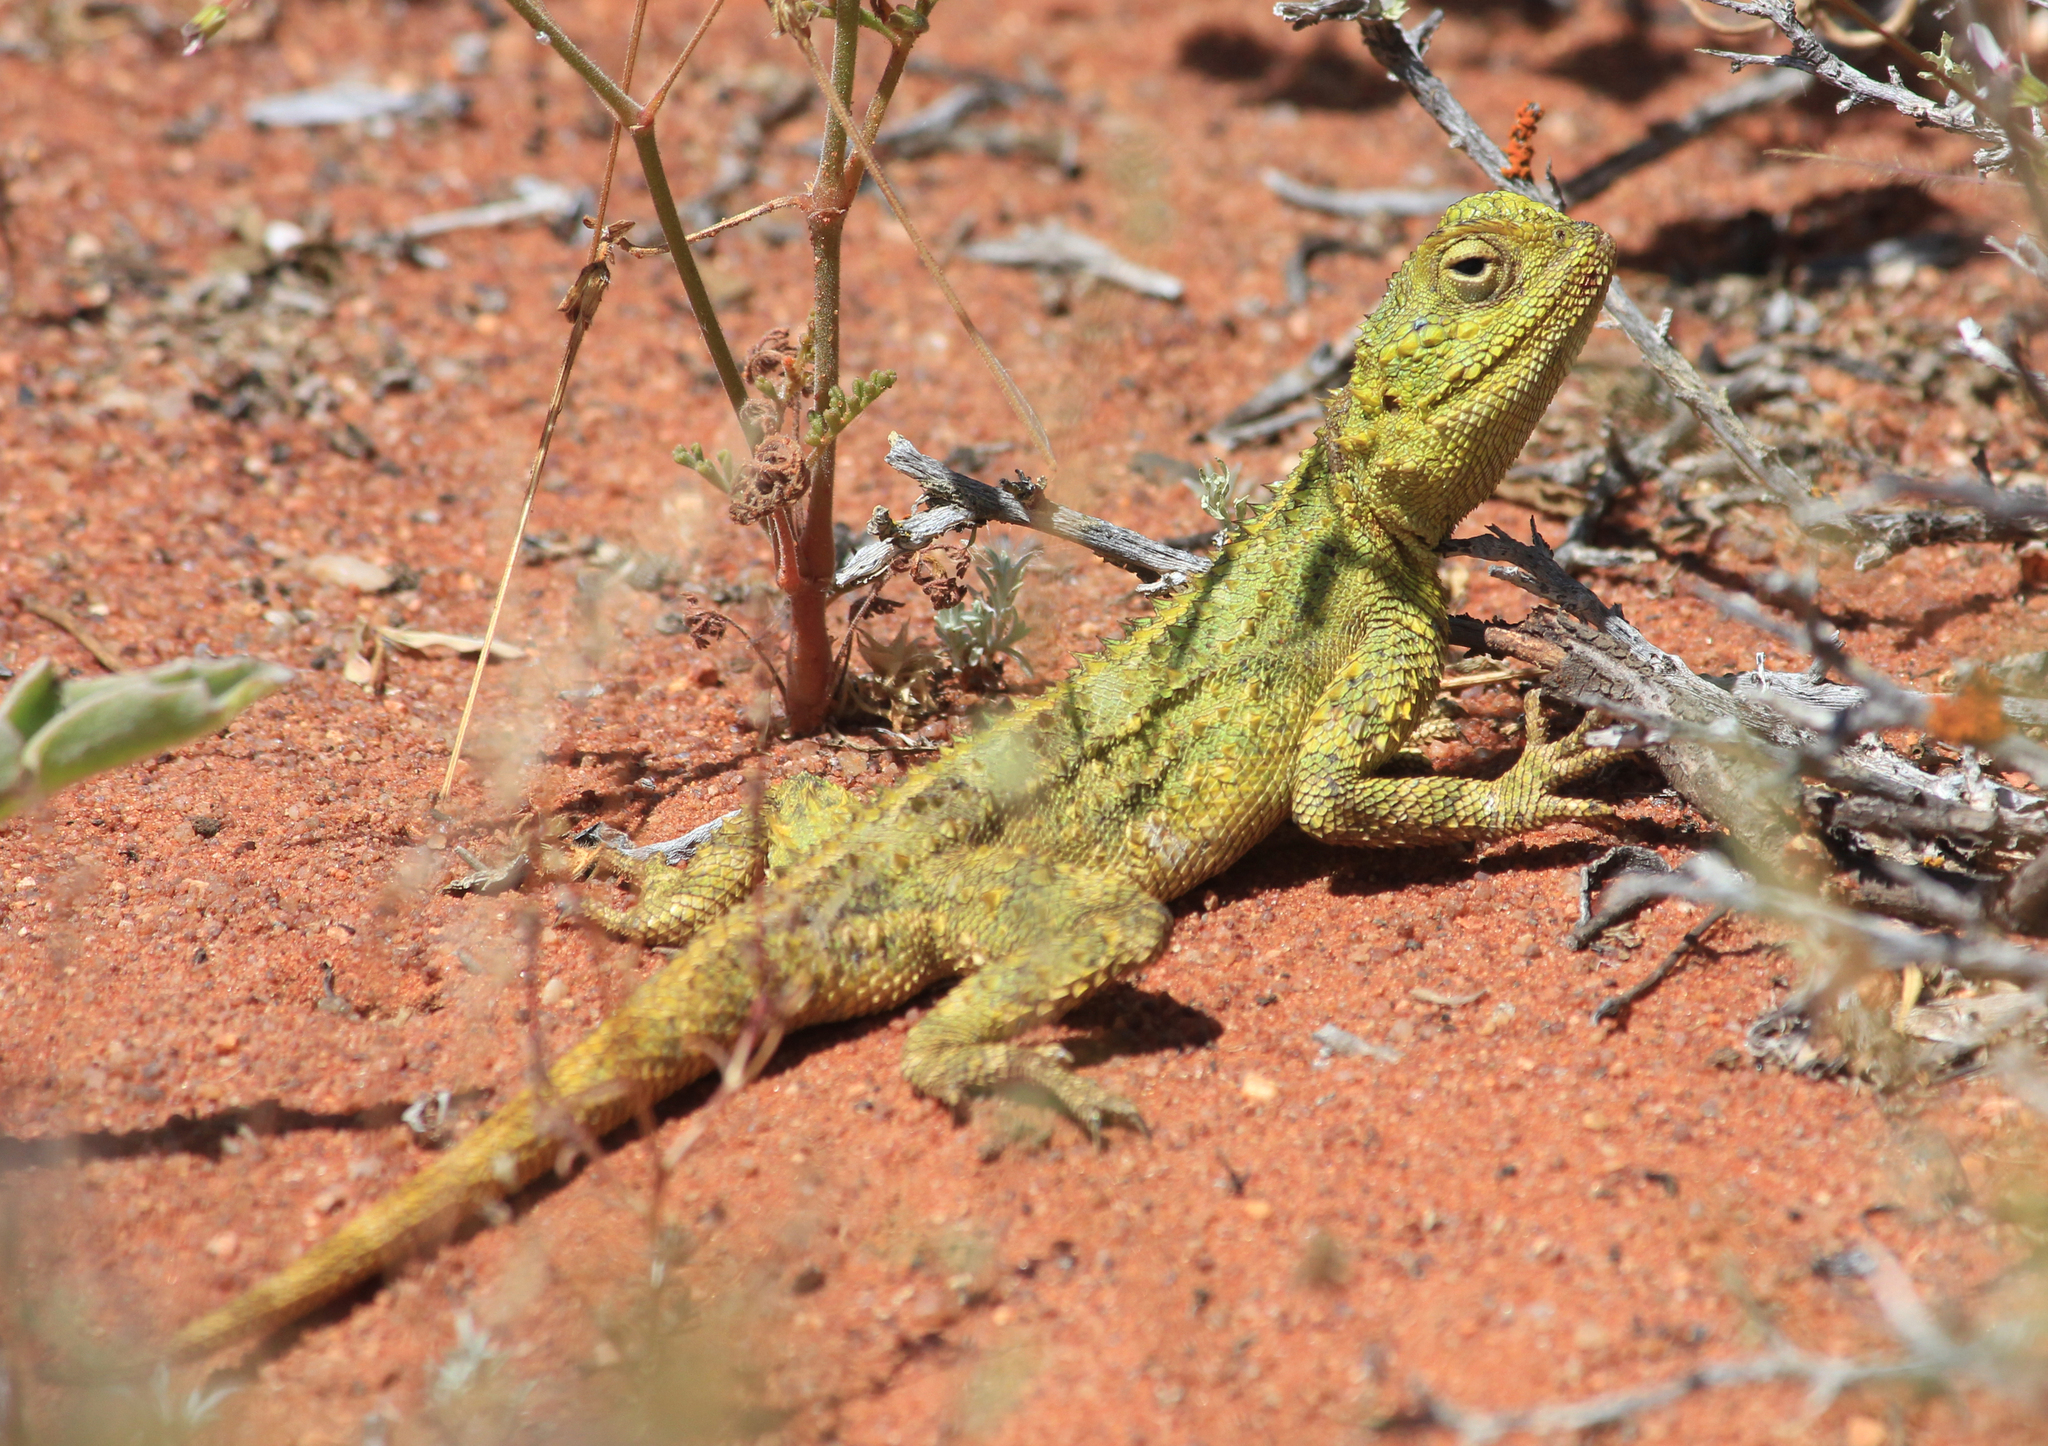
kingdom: Animalia
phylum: Chordata
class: Squamata
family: Agamidae
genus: Agama
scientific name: Agama hispida
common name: Common spiny agama
